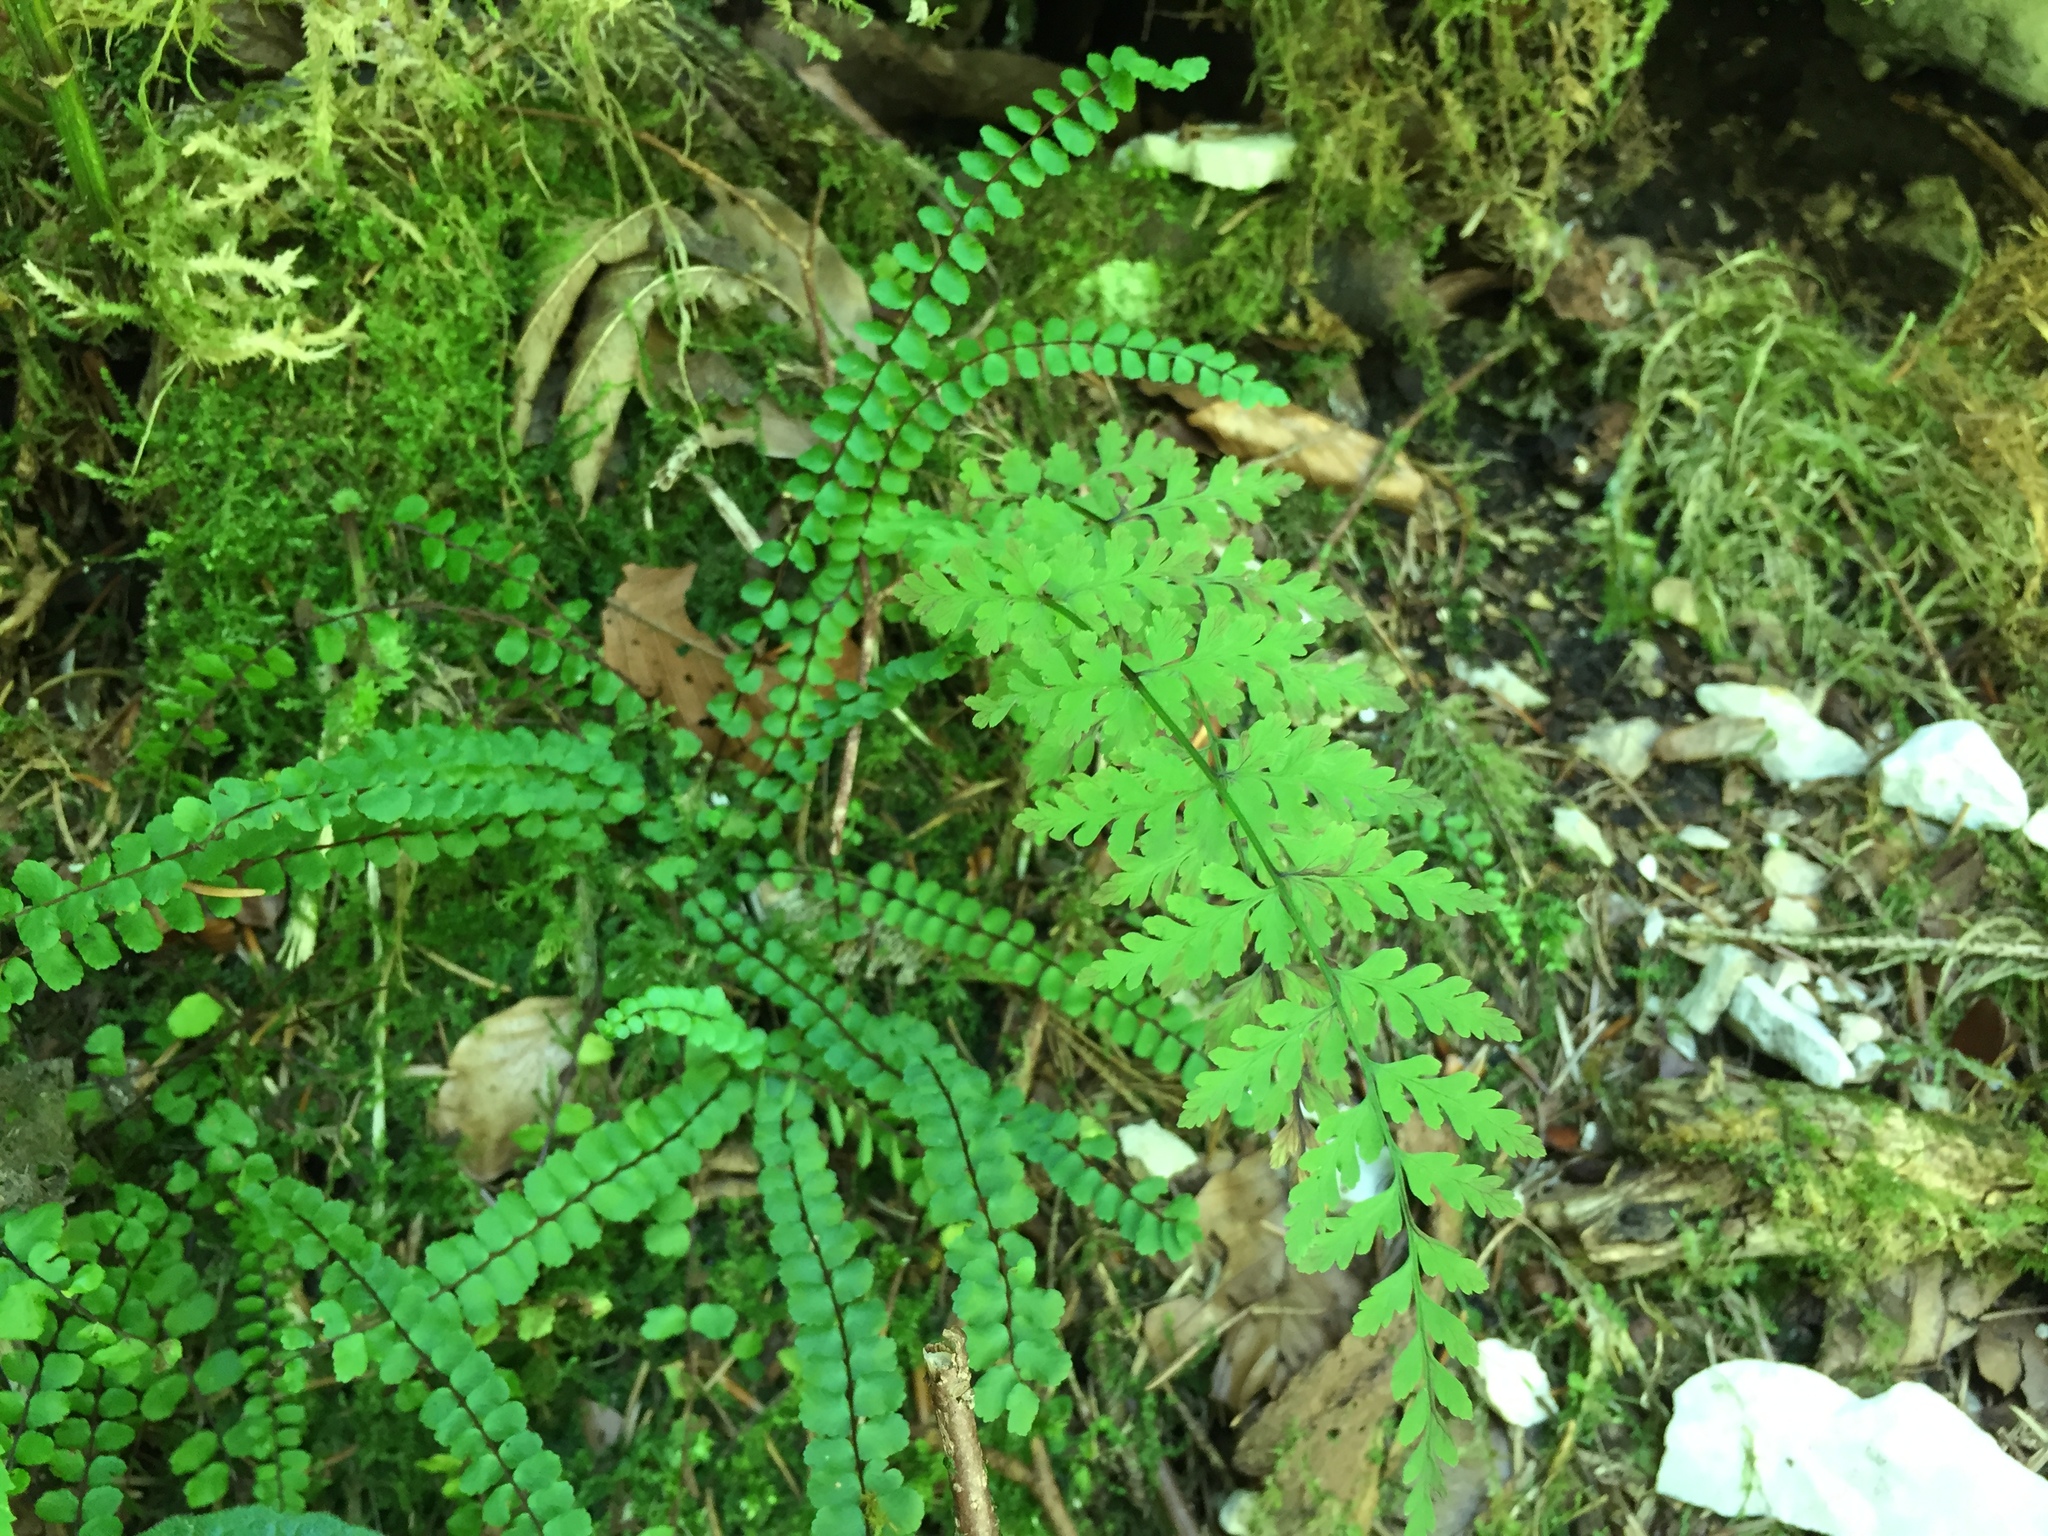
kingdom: Plantae
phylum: Tracheophyta
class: Polypodiopsida
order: Polypodiales
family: Cystopteridaceae
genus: Cystopteris
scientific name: Cystopteris fragilis
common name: Brittle bladder fern
